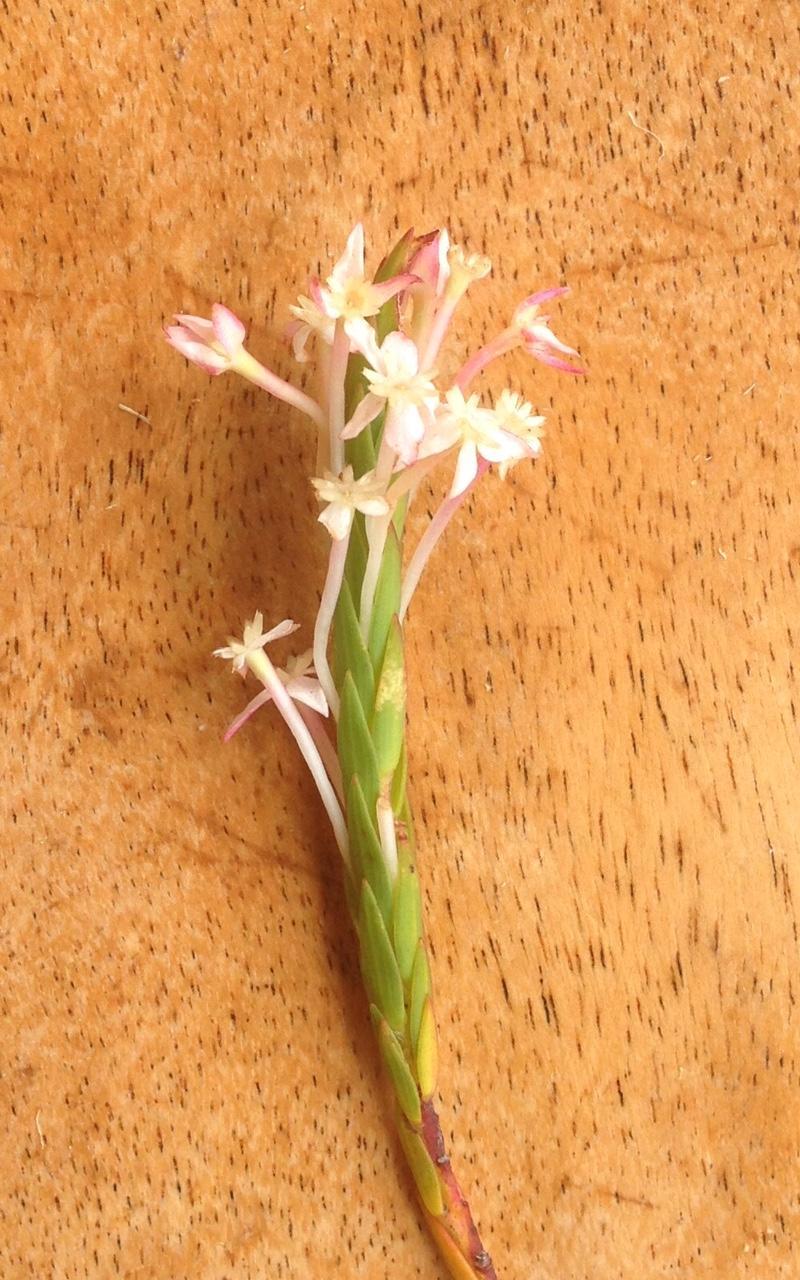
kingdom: Plantae
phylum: Tracheophyta
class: Magnoliopsida
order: Malvales
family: Thymelaeaceae
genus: Struthiola
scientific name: Struthiola myrsinites
